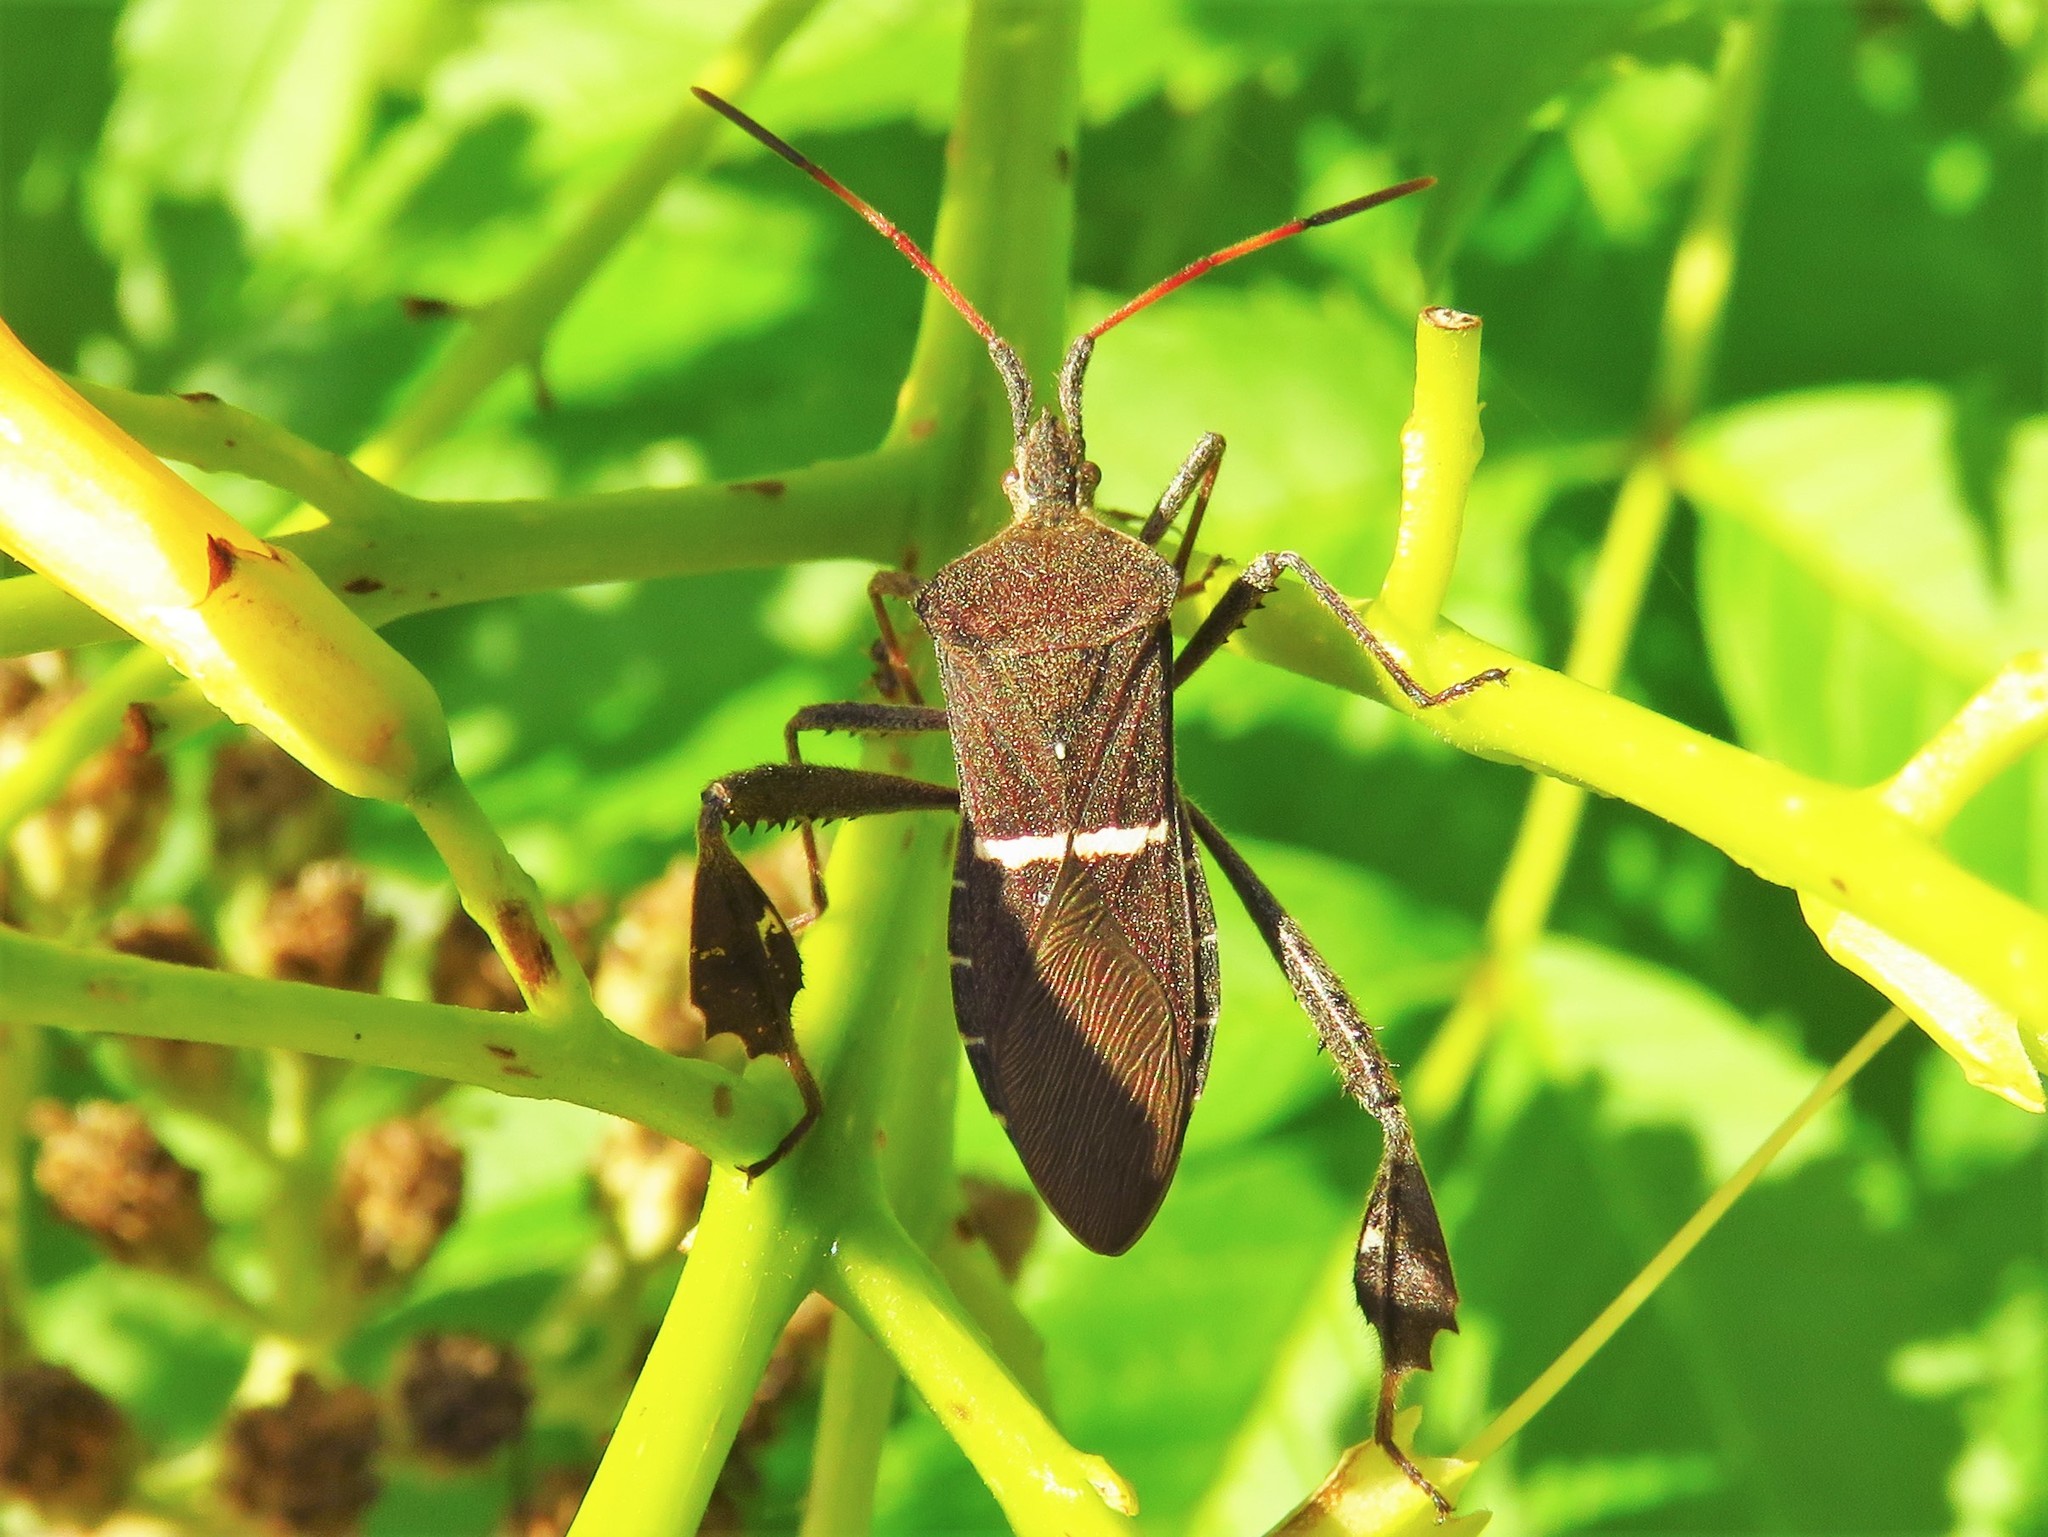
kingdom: Animalia
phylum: Arthropoda
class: Insecta
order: Hemiptera
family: Coreidae
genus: Leptoglossus
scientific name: Leptoglossus phyllopus
